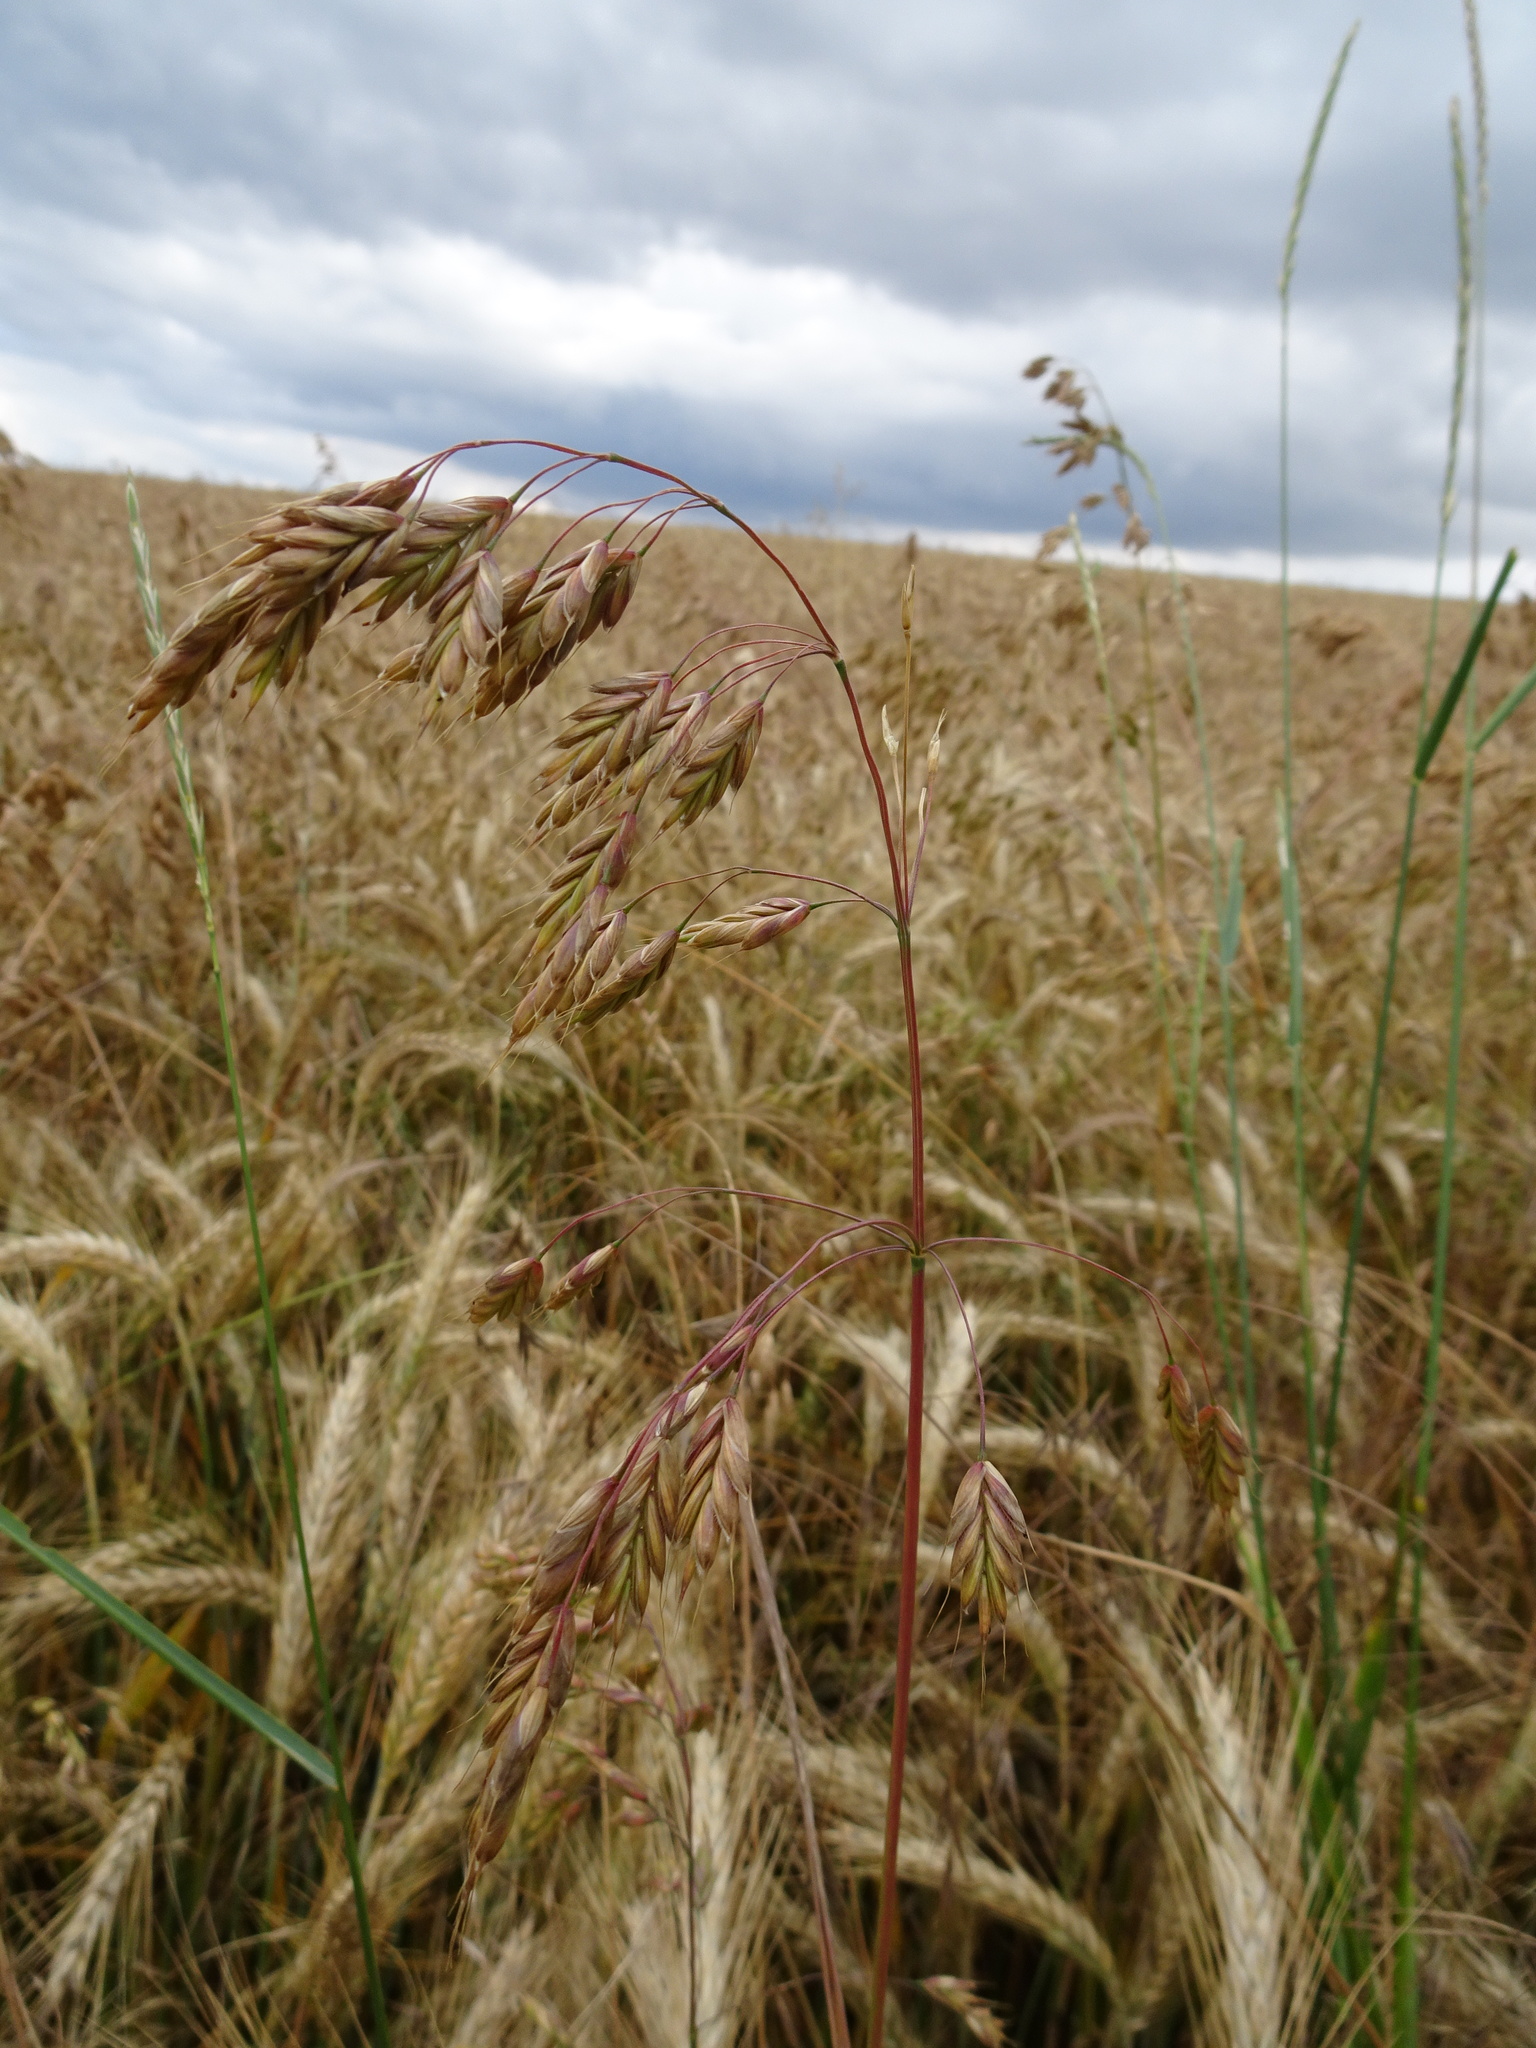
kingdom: Plantae
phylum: Tracheophyta
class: Liliopsida
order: Poales
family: Poaceae
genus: Bromus
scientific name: Bromus secalinus
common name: Rye brome
